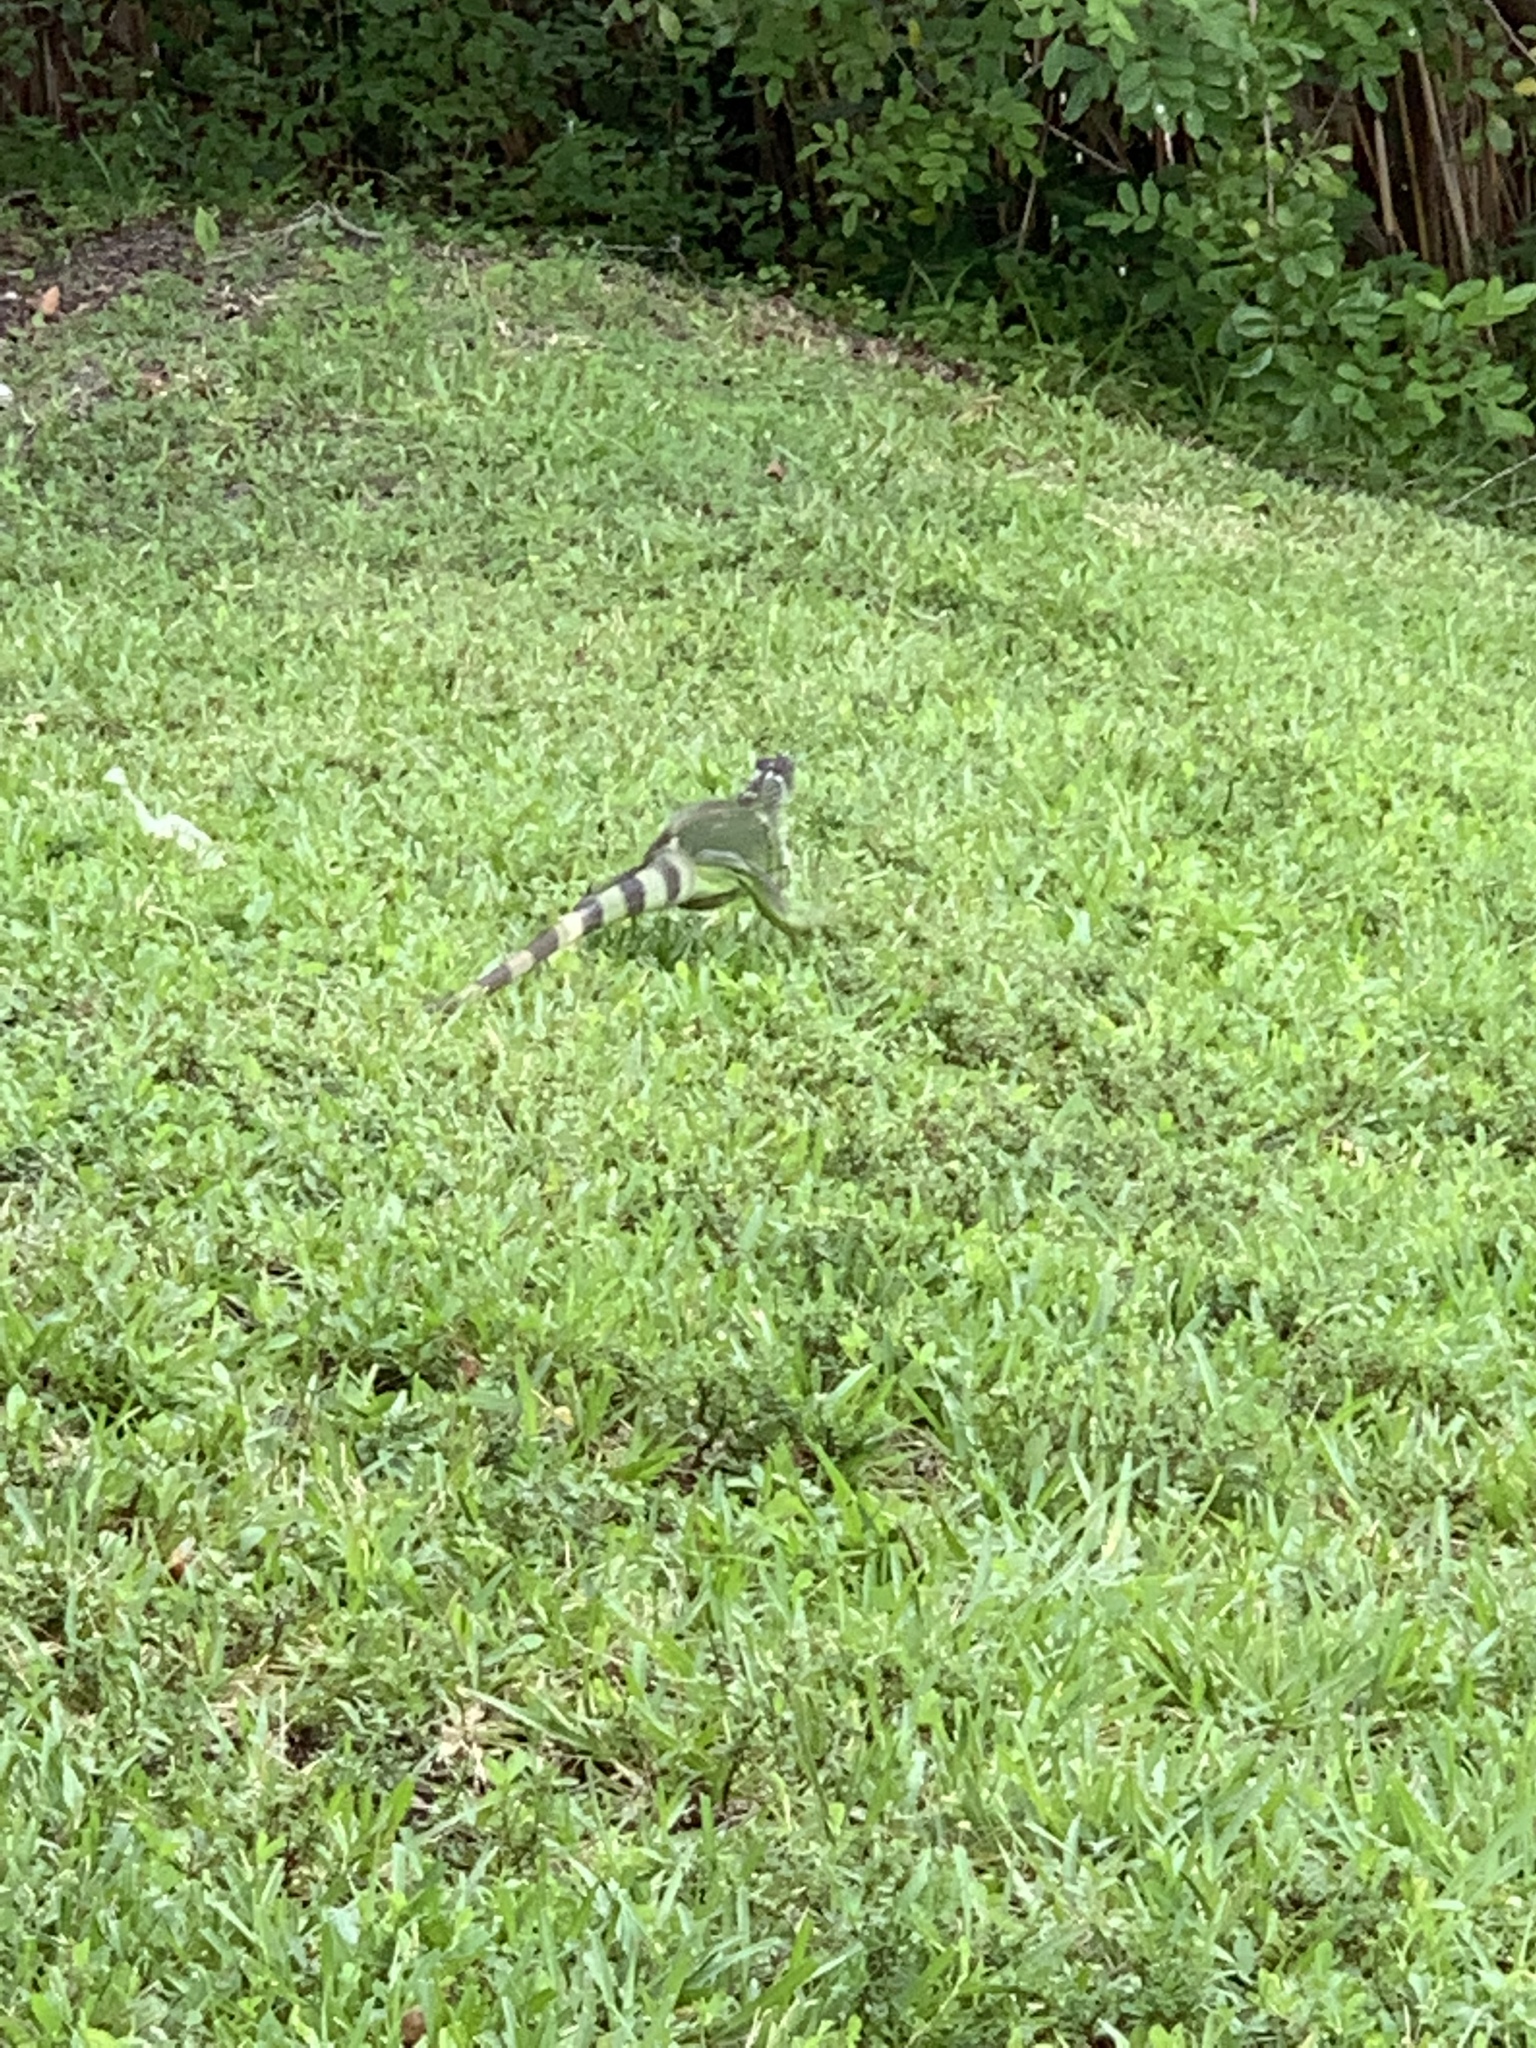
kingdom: Animalia
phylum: Chordata
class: Squamata
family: Iguanidae
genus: Iguana
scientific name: Iguana iguana
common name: Green iguana
